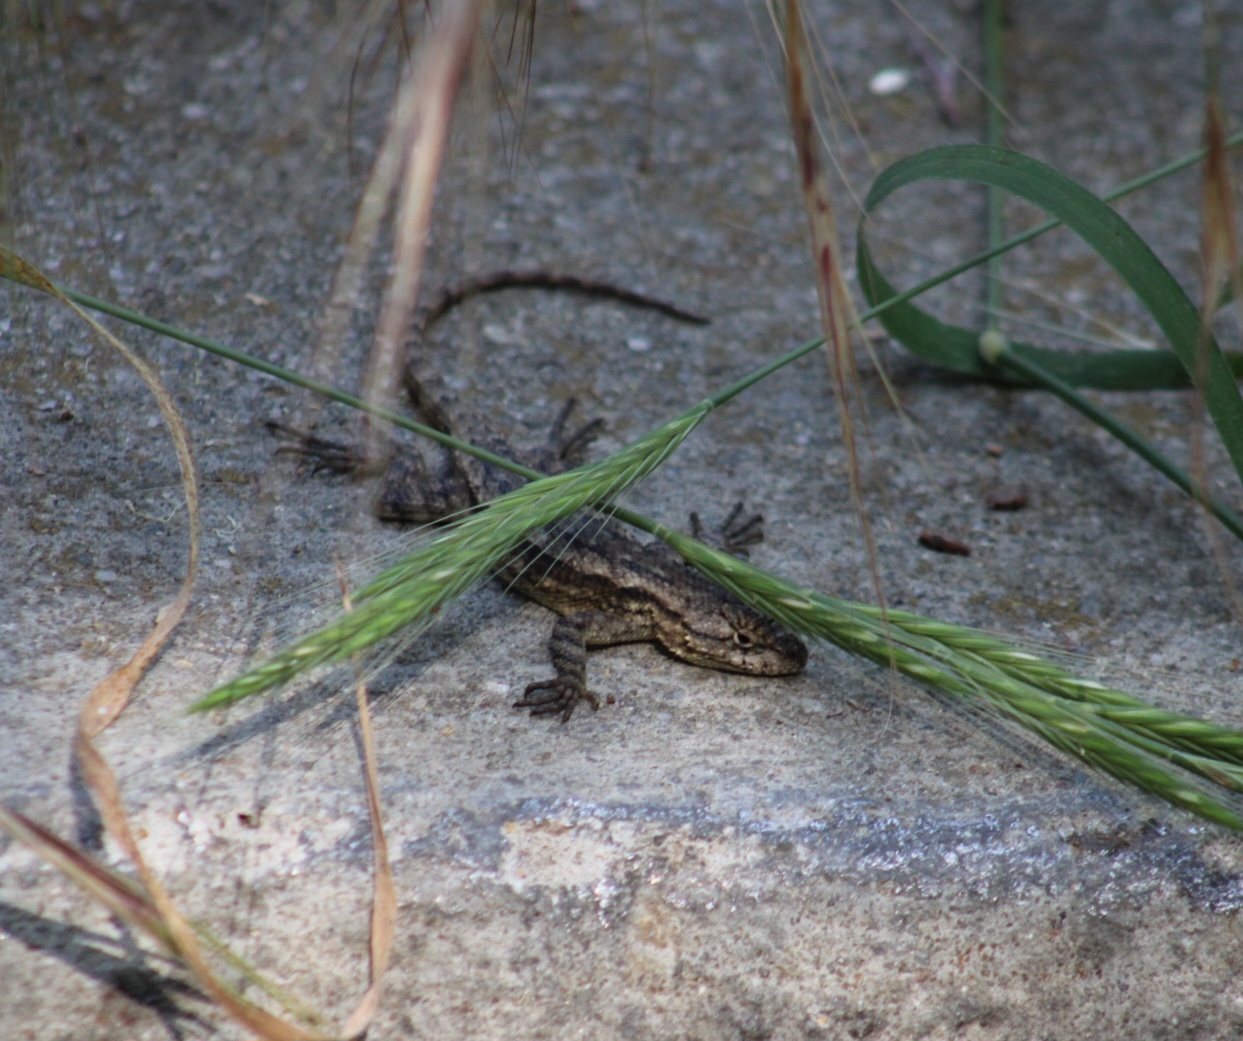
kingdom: Animalia
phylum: Chordata
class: Squamata
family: Phrynosomatidae
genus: Sceloporus
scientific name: Sceloporus occidentalis
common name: Western fence lizard
